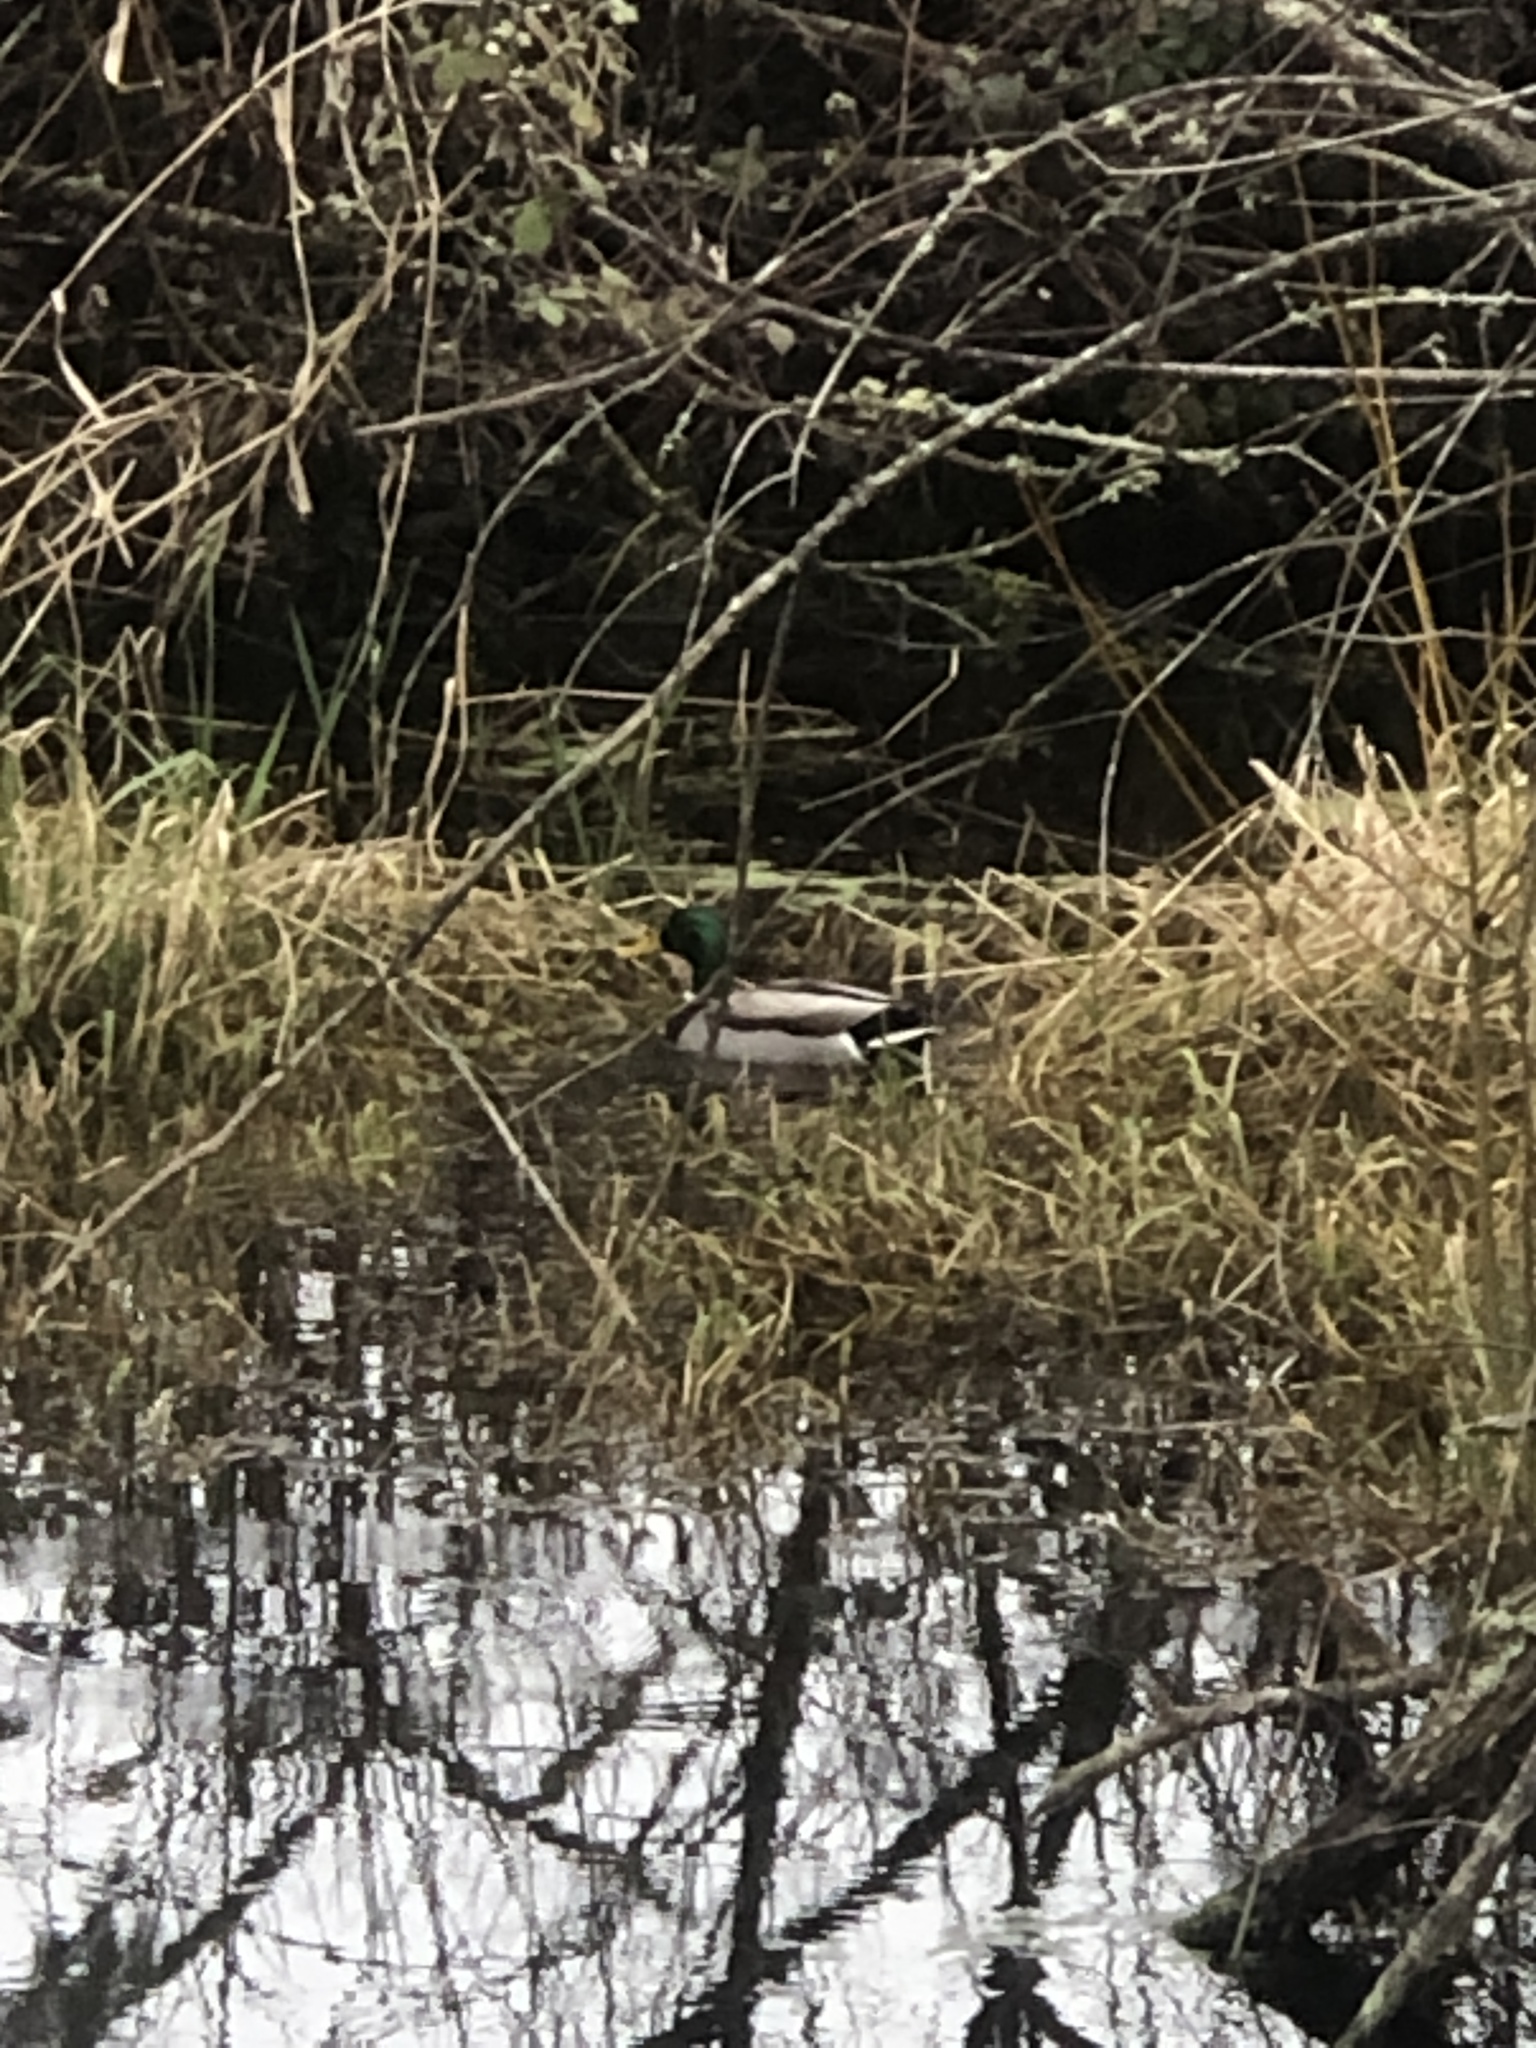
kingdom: Animalia
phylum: Chordata
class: Aves
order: Anseriformes
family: Anatidae
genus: Anas
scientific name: Anas platyrhynchos
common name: Mallard
